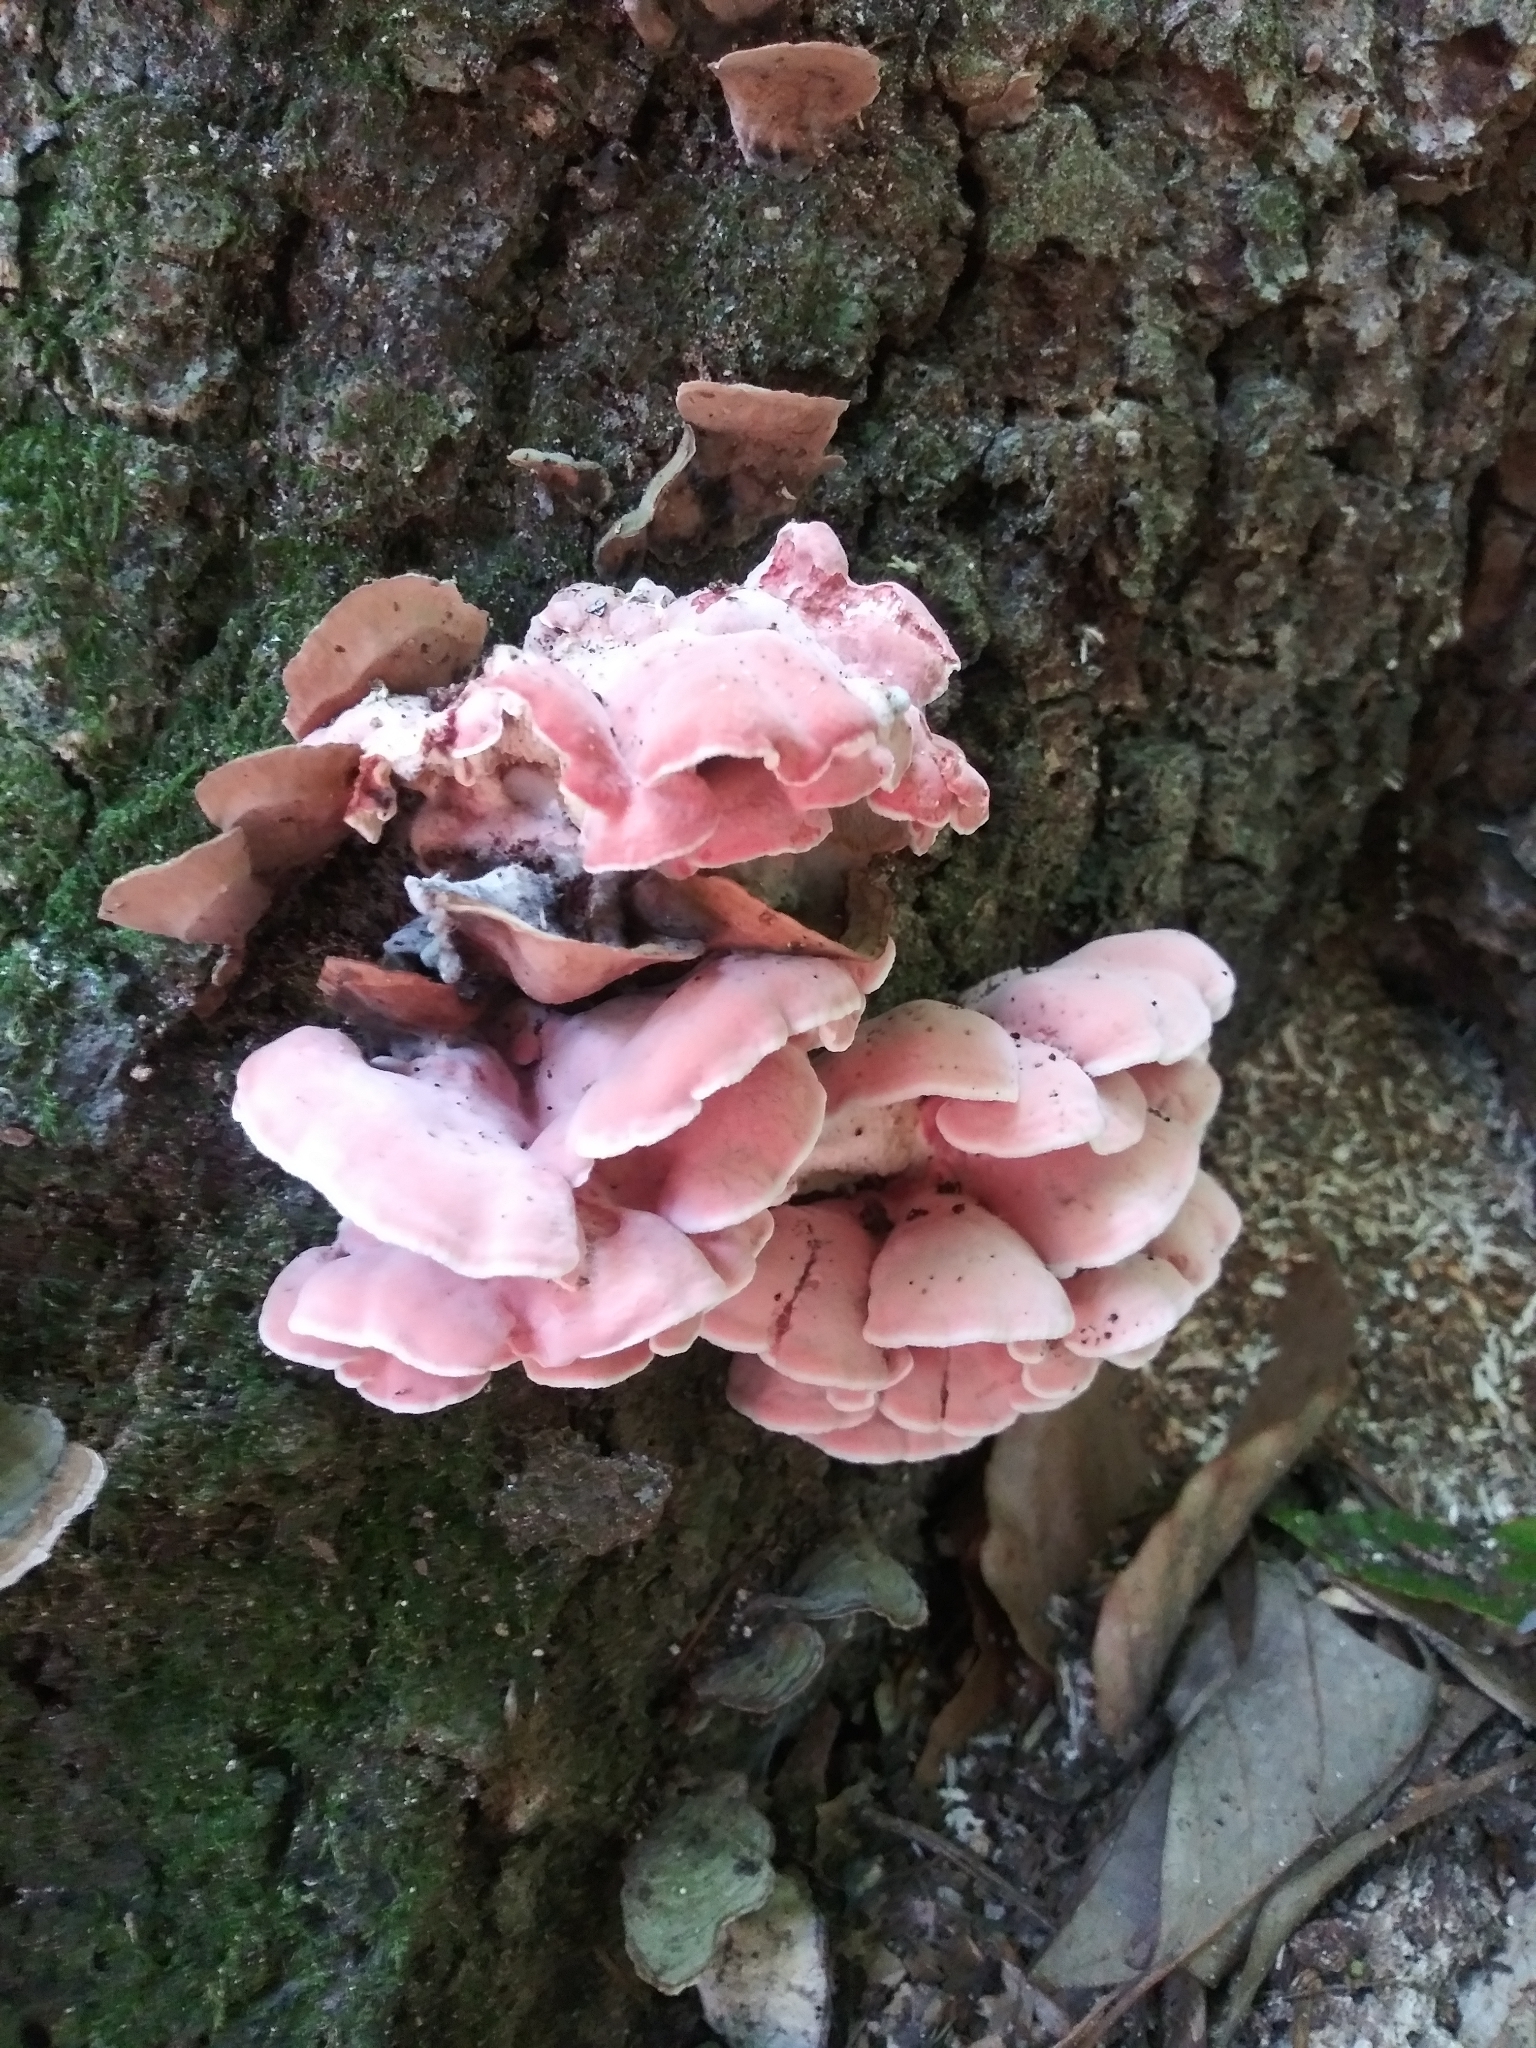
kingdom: Fungi
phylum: Basidiomycota
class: Agaricomycetes
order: Polyporales
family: Irpicaceae
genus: Byssomerulius
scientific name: Byssomerulius incarnatus
